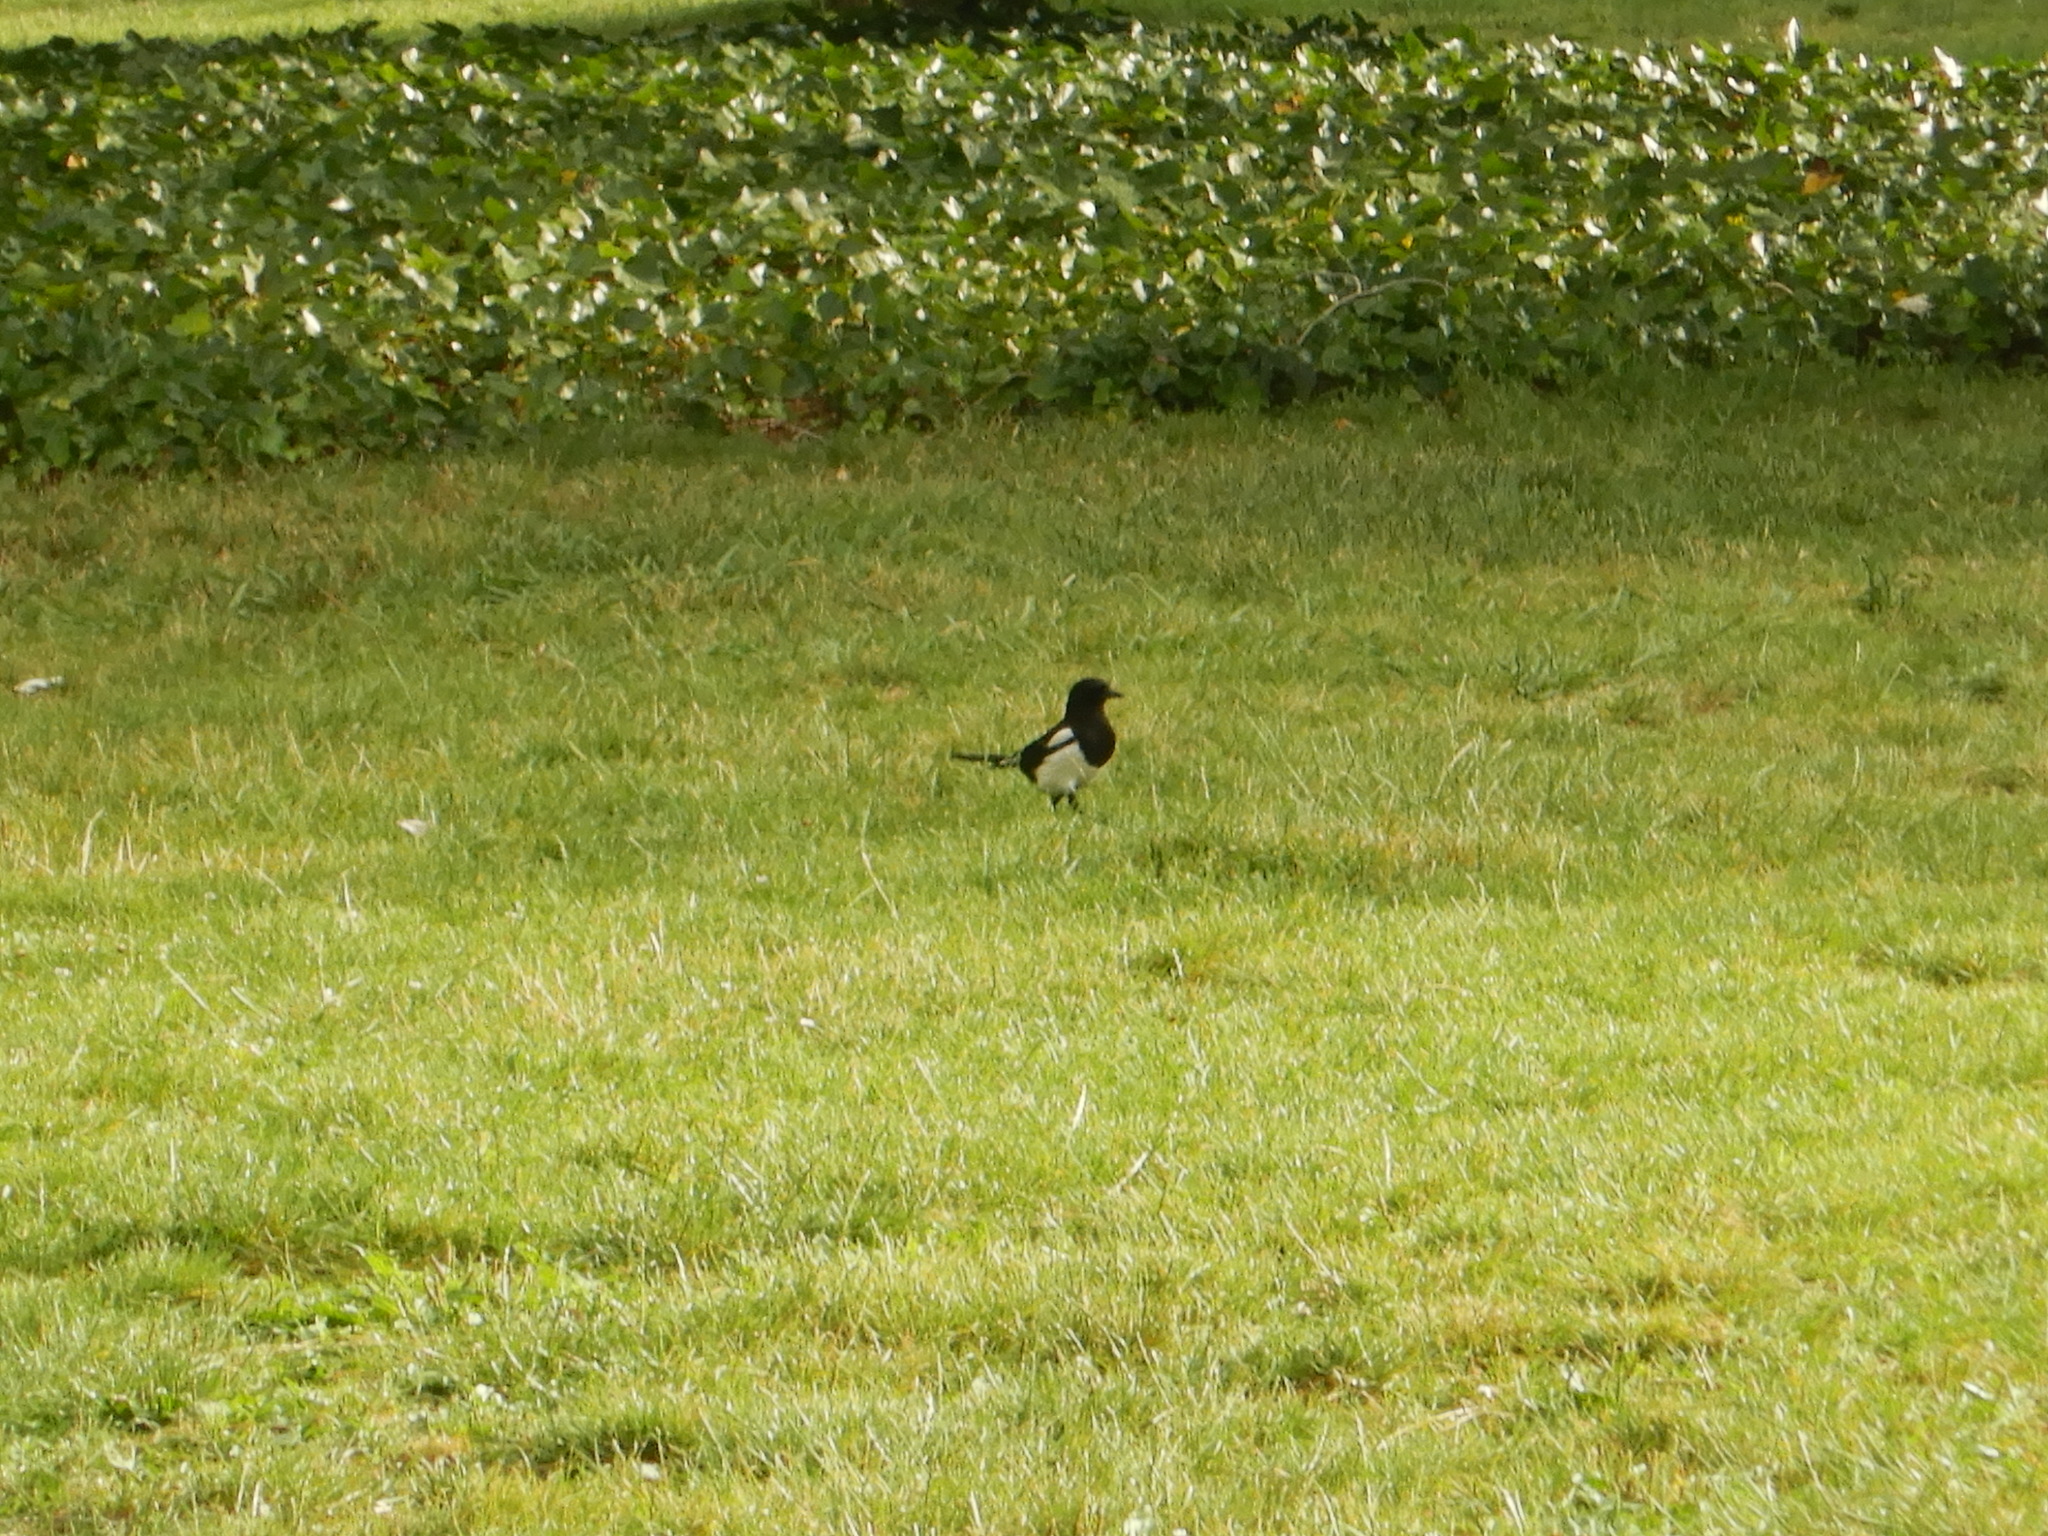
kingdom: Animalia
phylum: Chordata
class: Aves
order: Passeriformes
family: Corvidae
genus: Pica
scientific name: Pica pica
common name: Eurasian magpie
